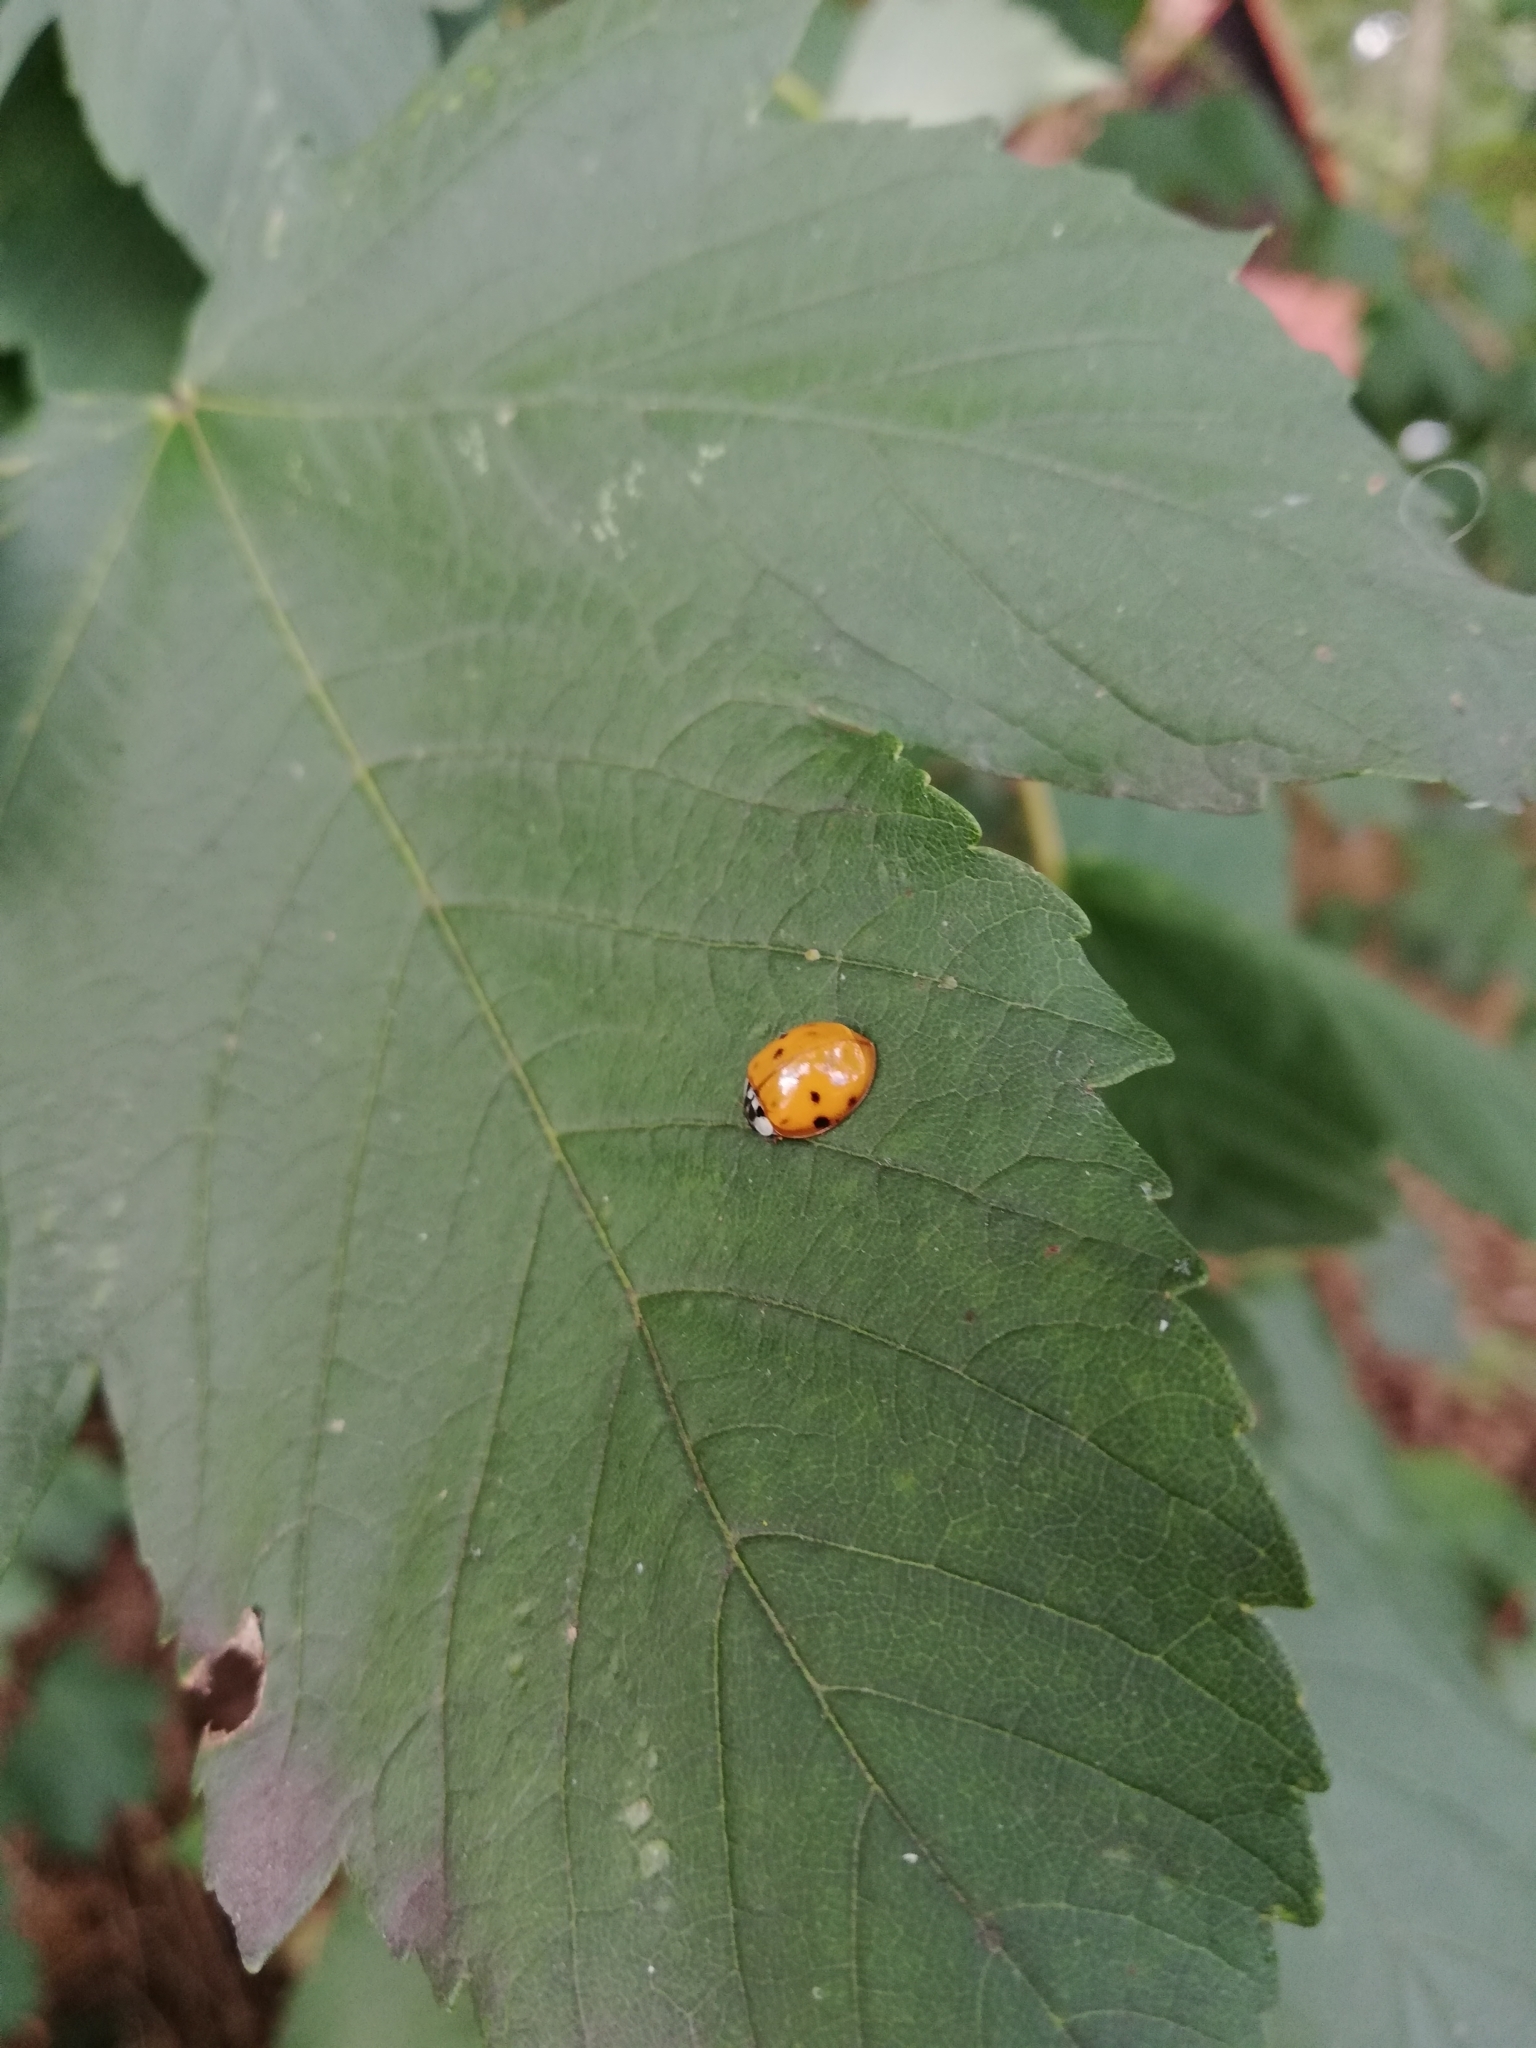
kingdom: Animalia
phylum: Arthropoda
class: Insecta
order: Coleoptera
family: Coccinellidae
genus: Harmonia
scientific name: Harmonia axyridis
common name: Harlequin ladybird
